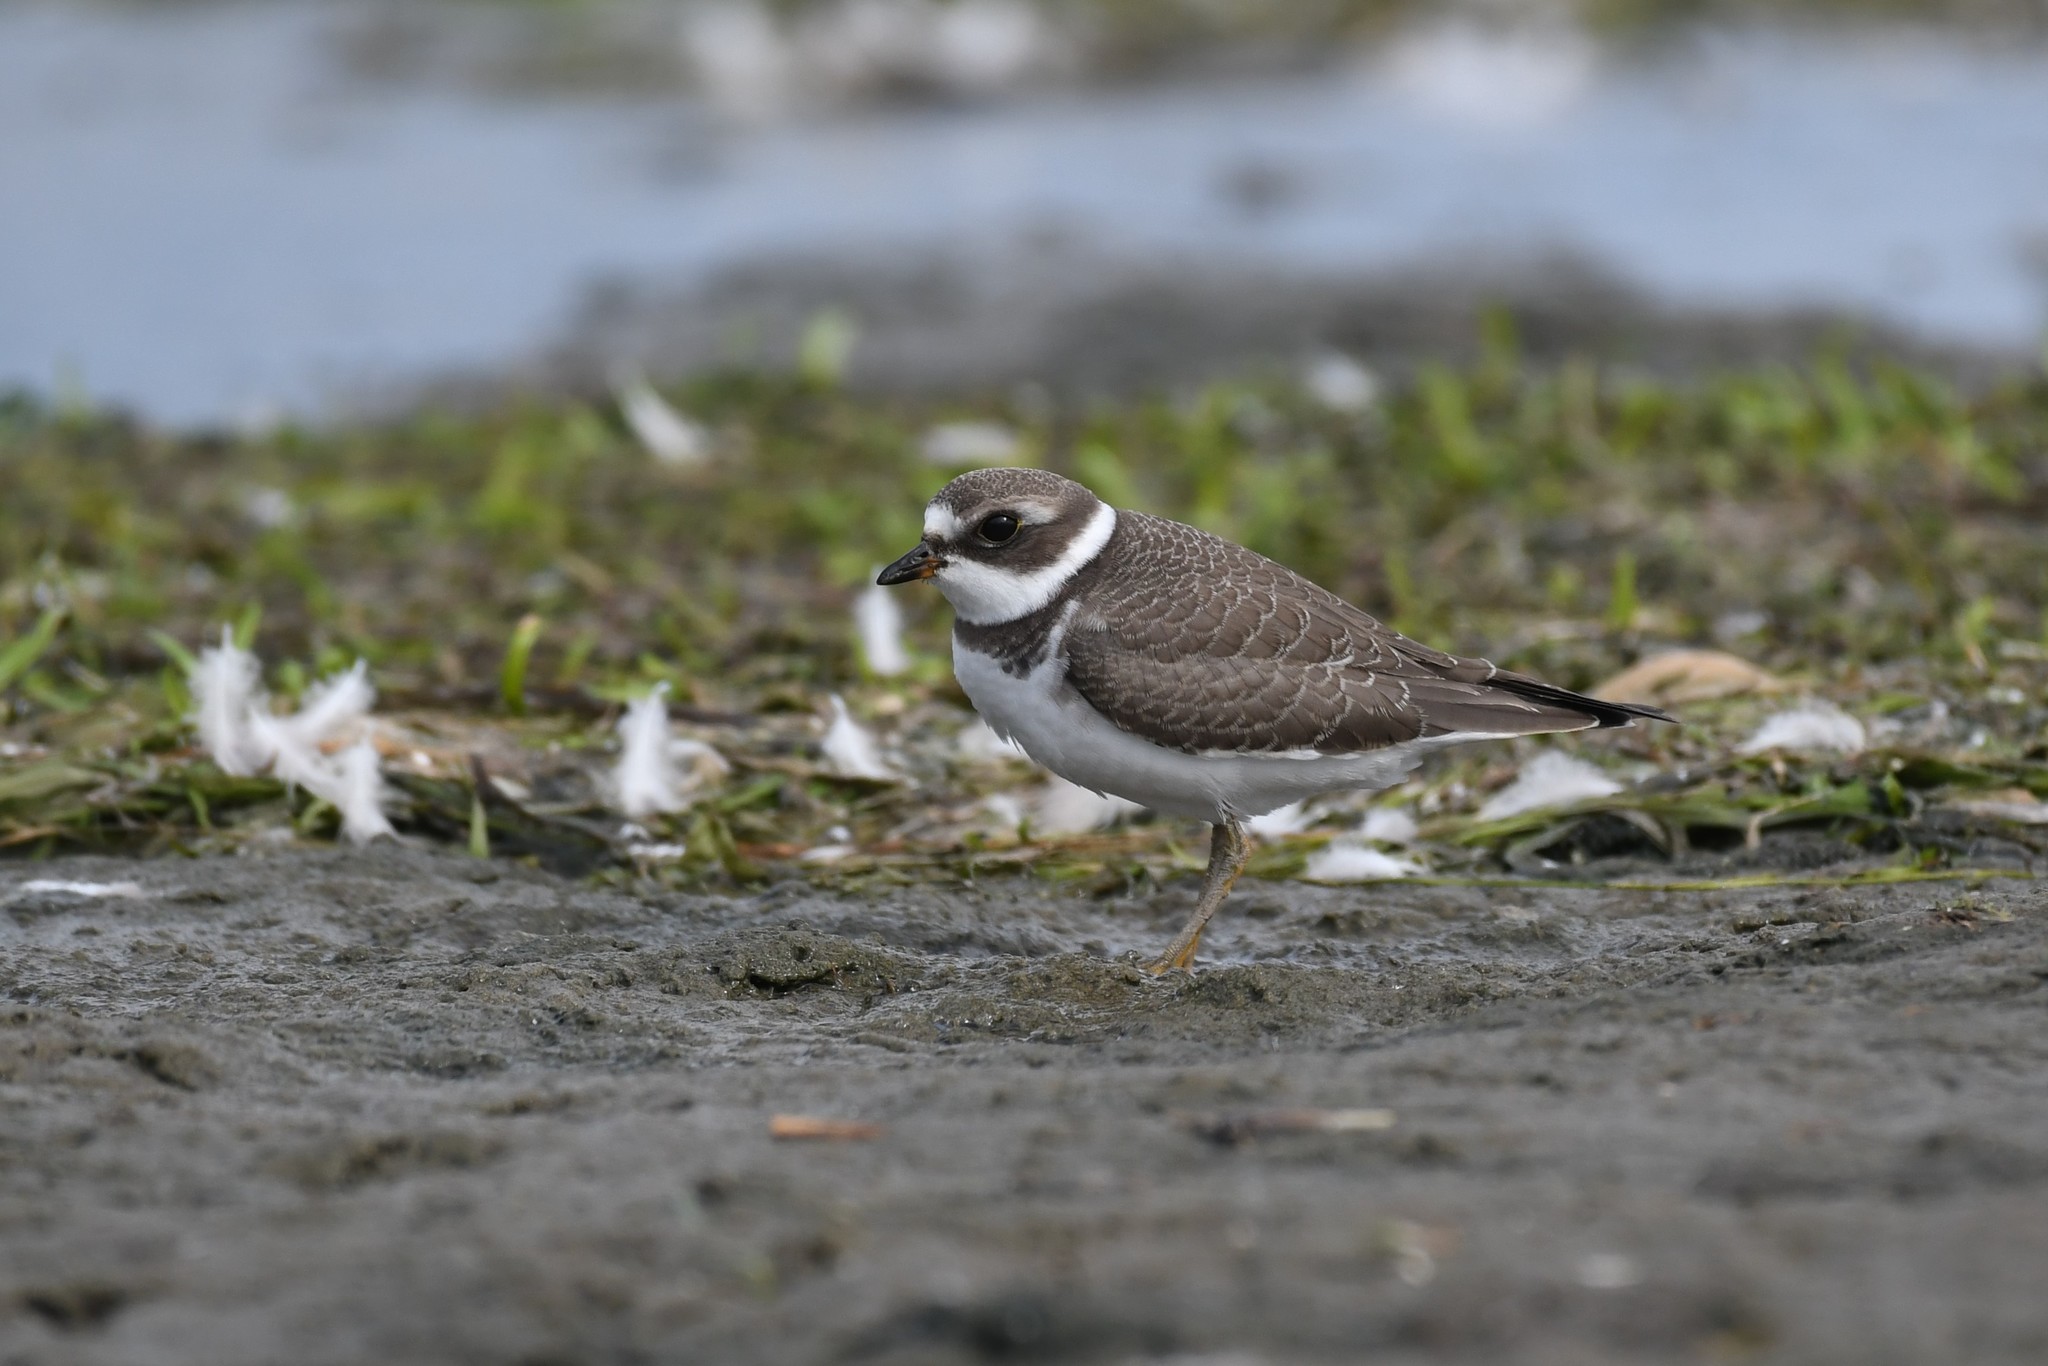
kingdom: Animalia
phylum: Chordata
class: Aves
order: Charadriiformes
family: Charadriidae
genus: Charadrius
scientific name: Charadrius semipalmatus
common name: Semipalmated plover
